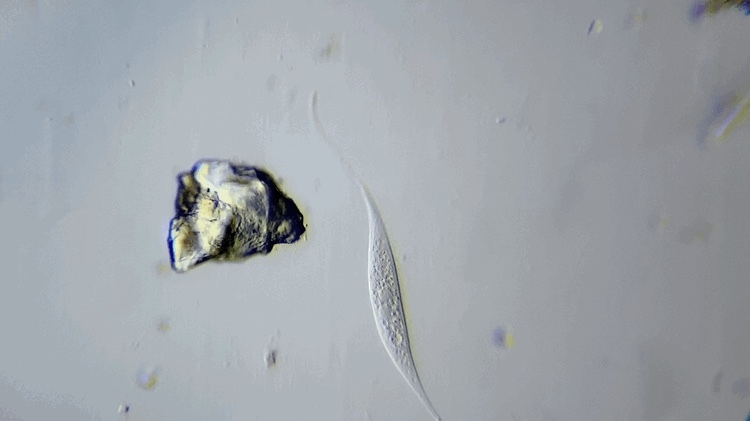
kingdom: Chromista
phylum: Ciliophora
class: Gymnostomatea
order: Pleurostomatida
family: Litonotidae
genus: Litonotus
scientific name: Litonotus cygnus
